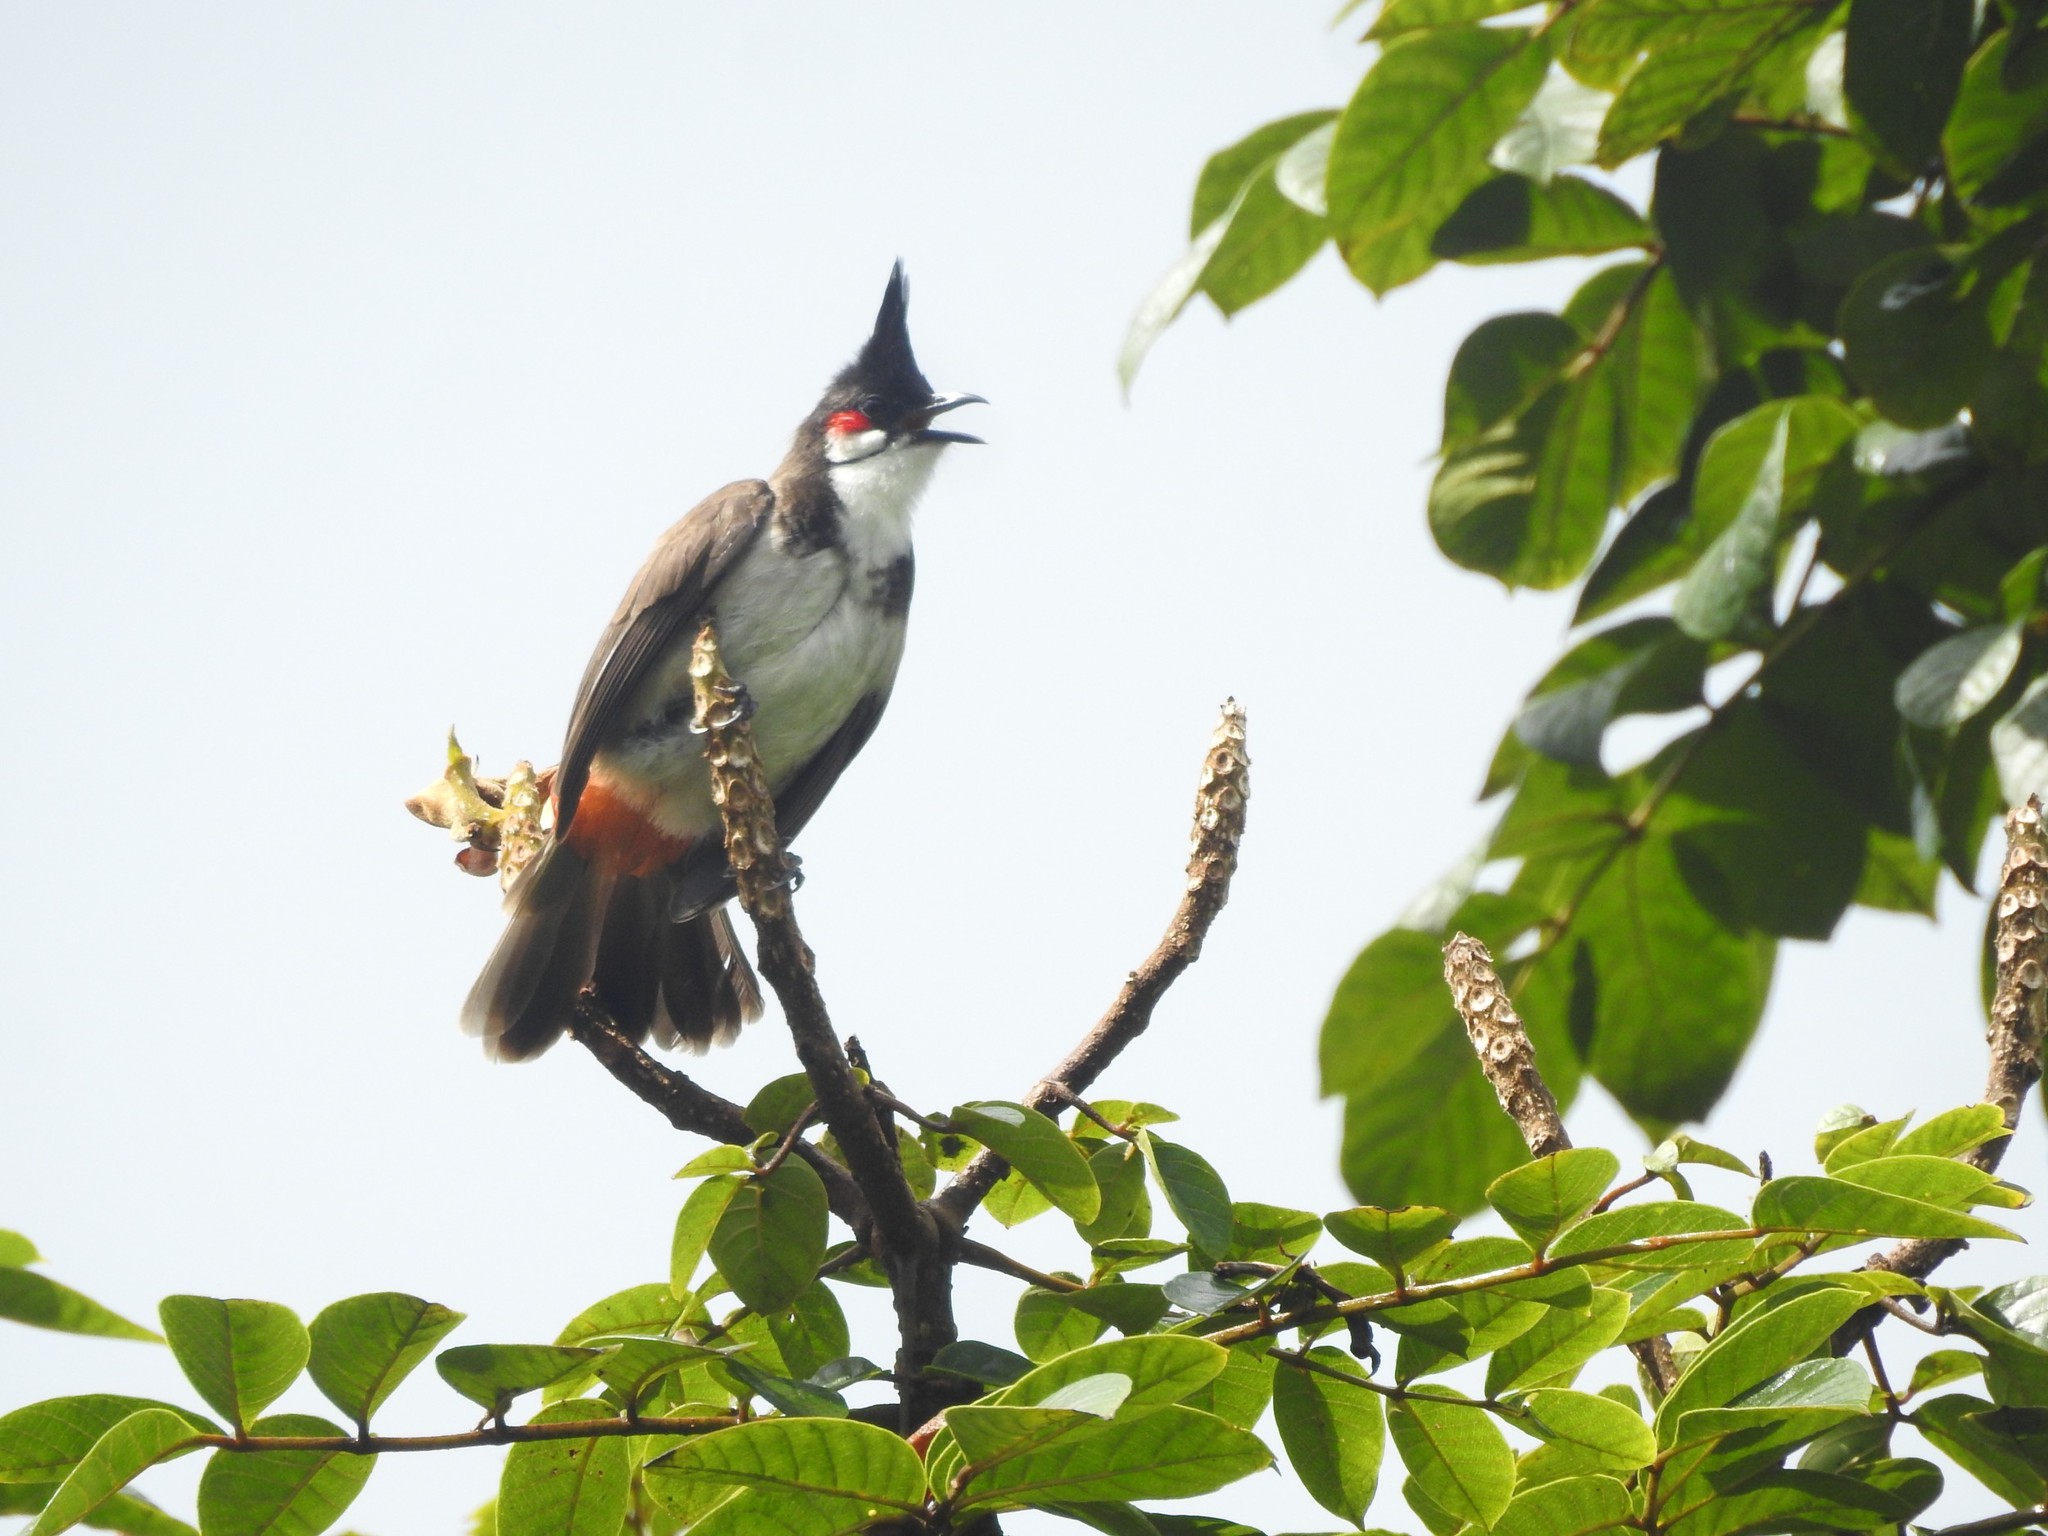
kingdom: Animalia
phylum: Chordata
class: Aves
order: Passeriformes
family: Pycnonotidae
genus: Pycnonotus
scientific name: Pycnonotus jocosus
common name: Red-whiskered bulbul
